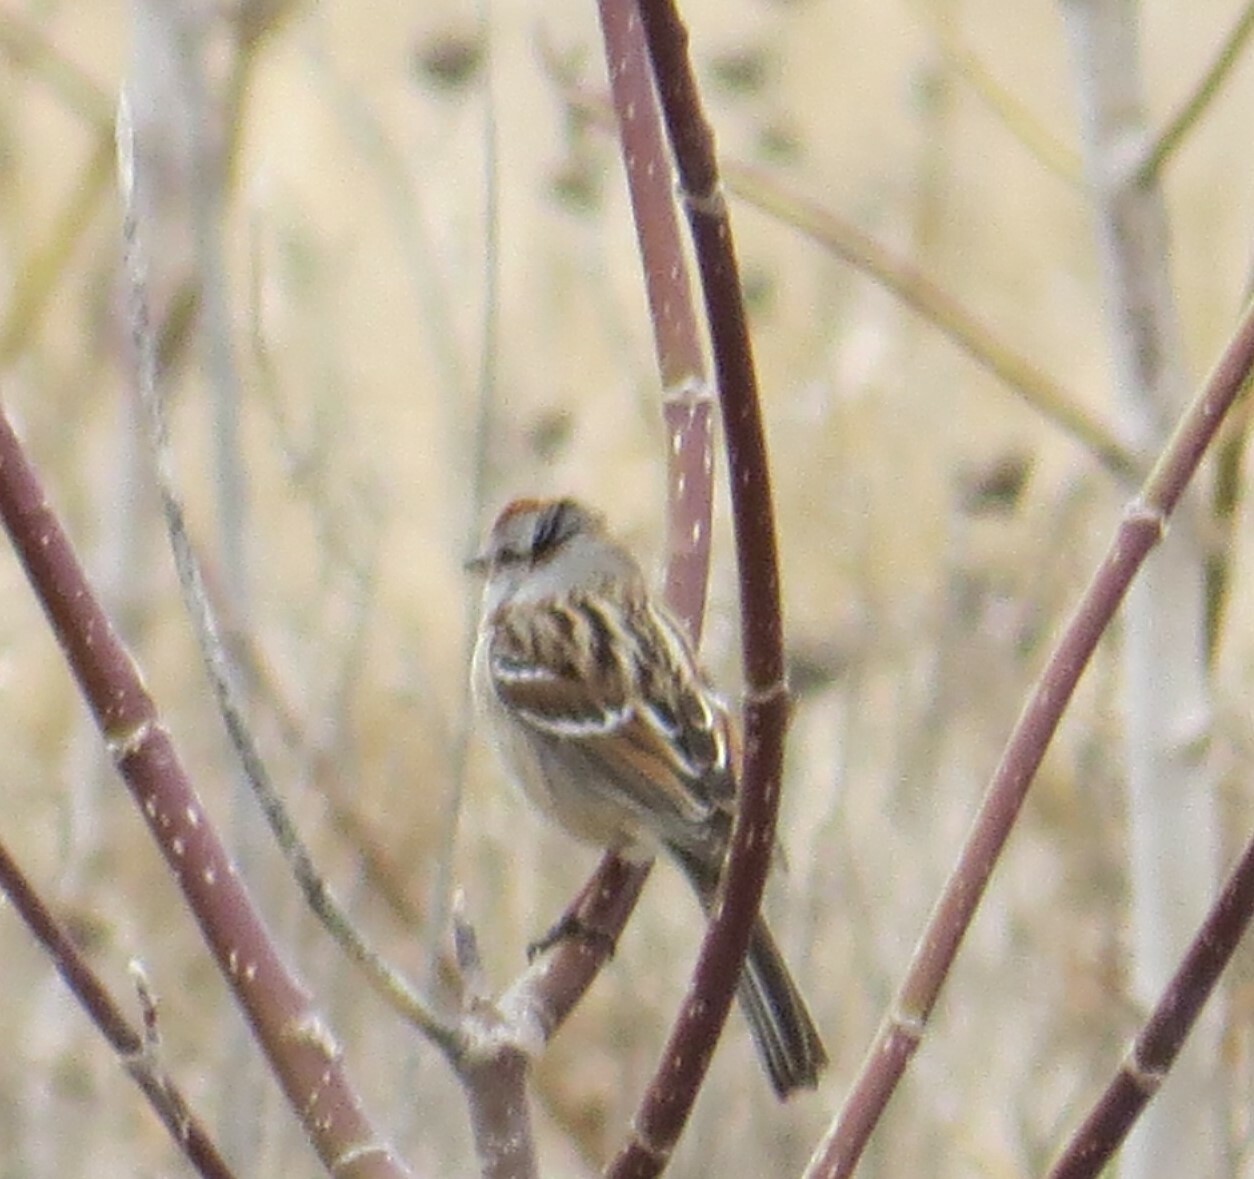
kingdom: Animalia
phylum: Chordata
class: Aves
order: Passeriformes
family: Passerellidae
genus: Spizelloides
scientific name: Spizelloides arborea
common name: American tree sparrow
